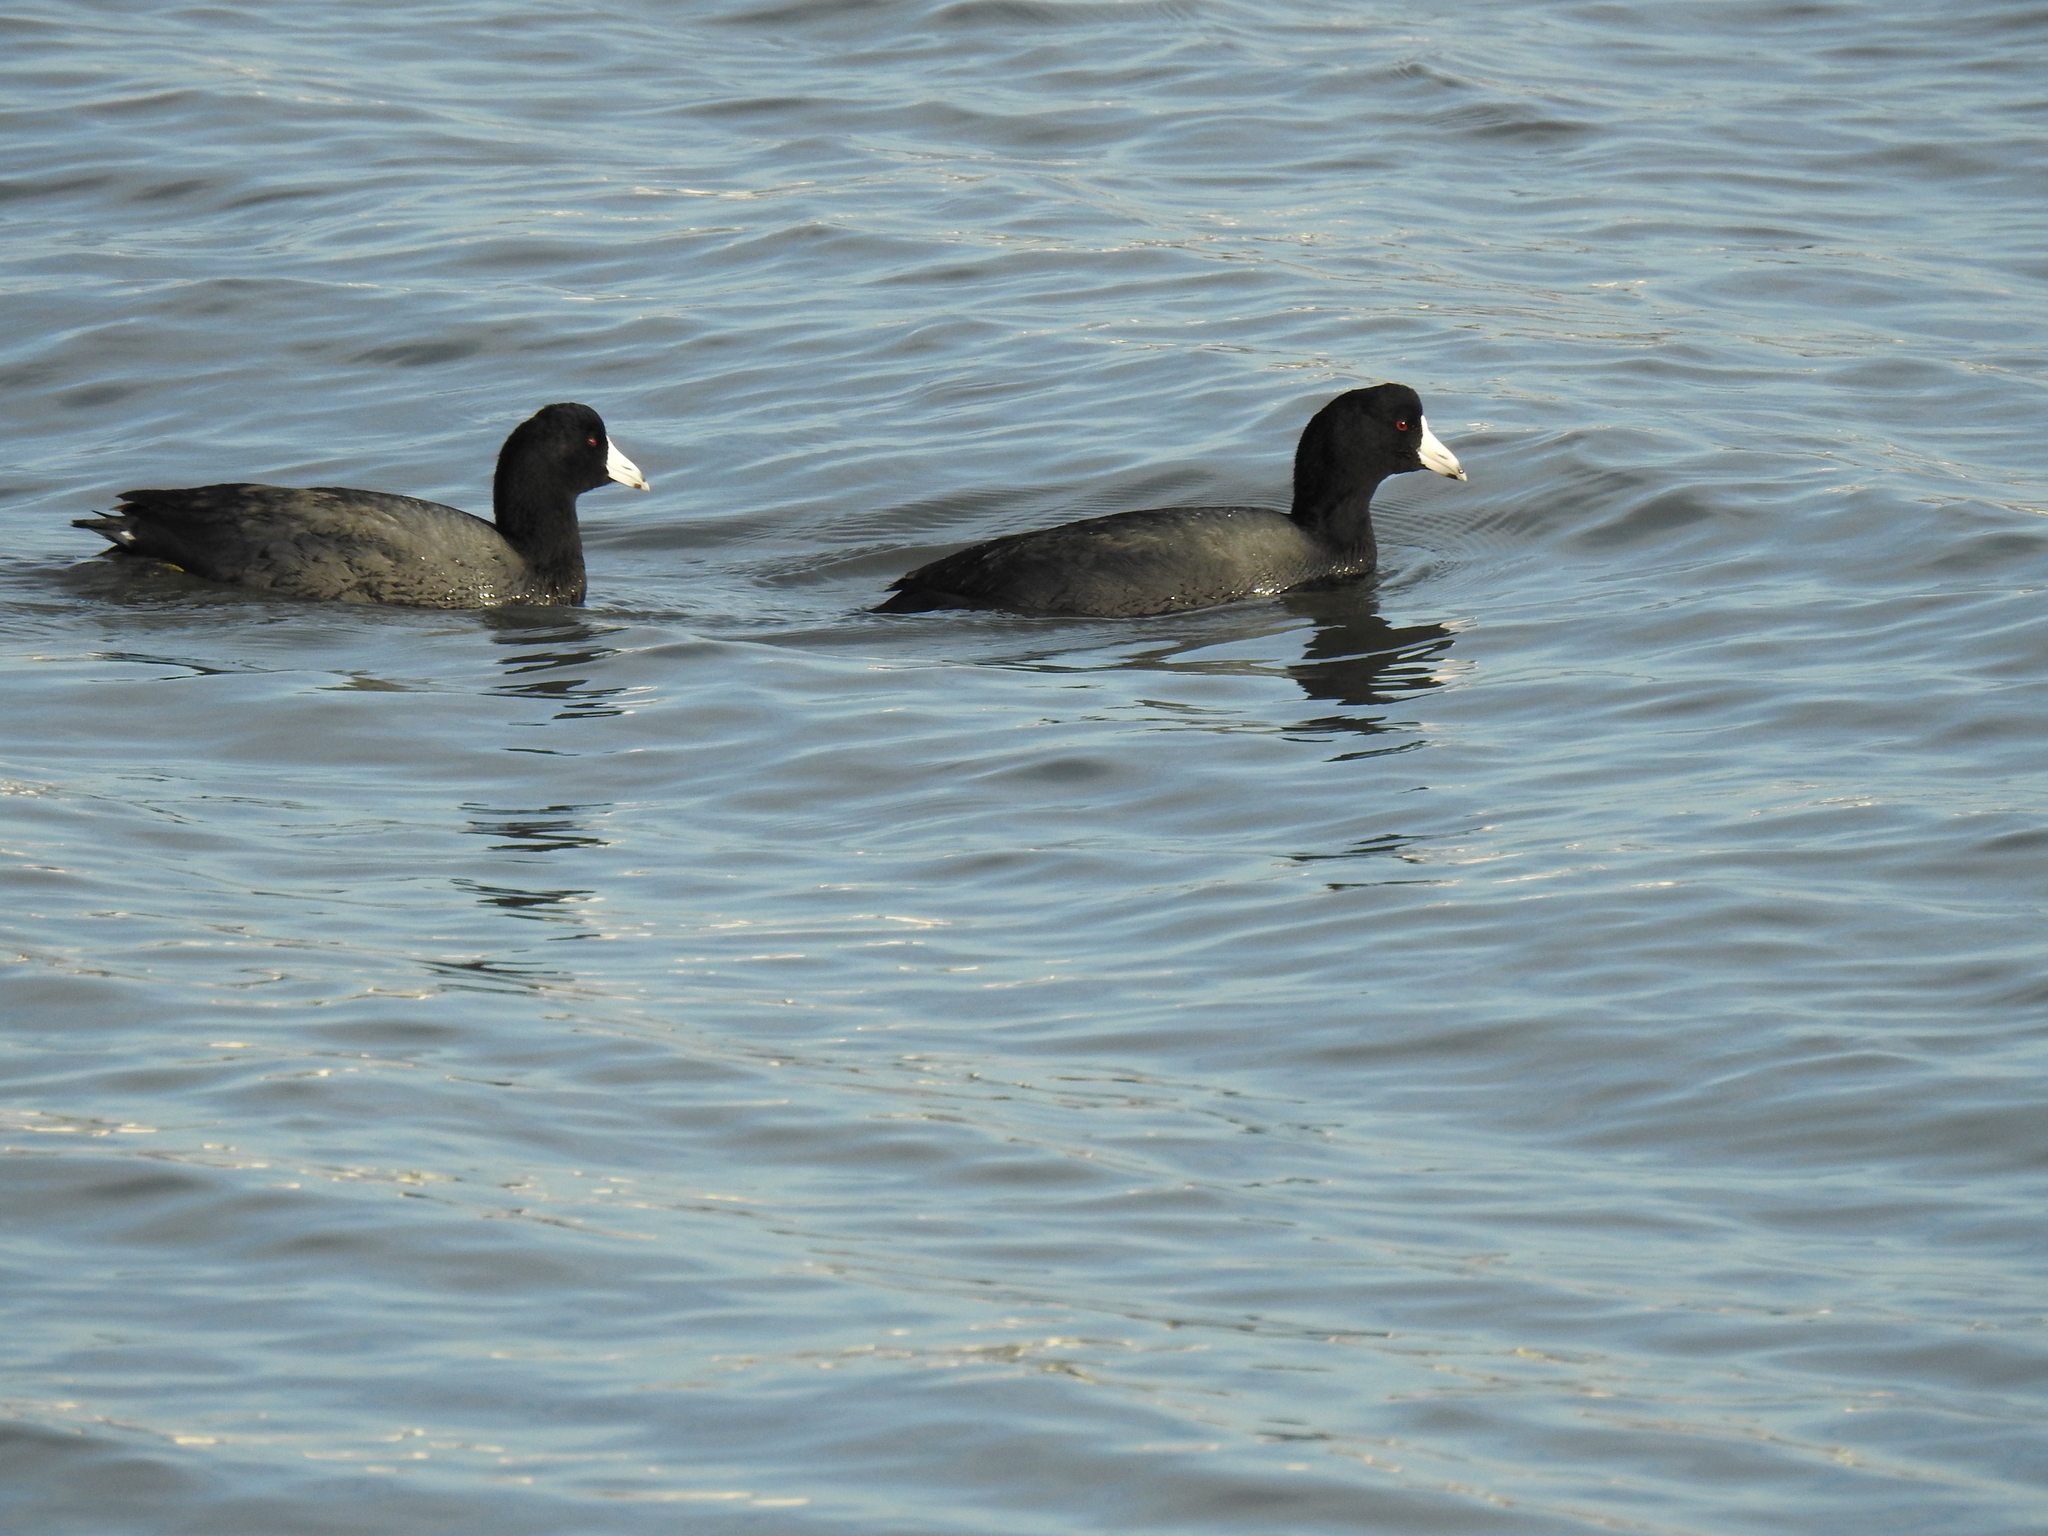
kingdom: Animalia
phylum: Chordata
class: Aves
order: Gruiformes
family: Rallidae
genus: Fulica
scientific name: Fulica americana
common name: American coot
